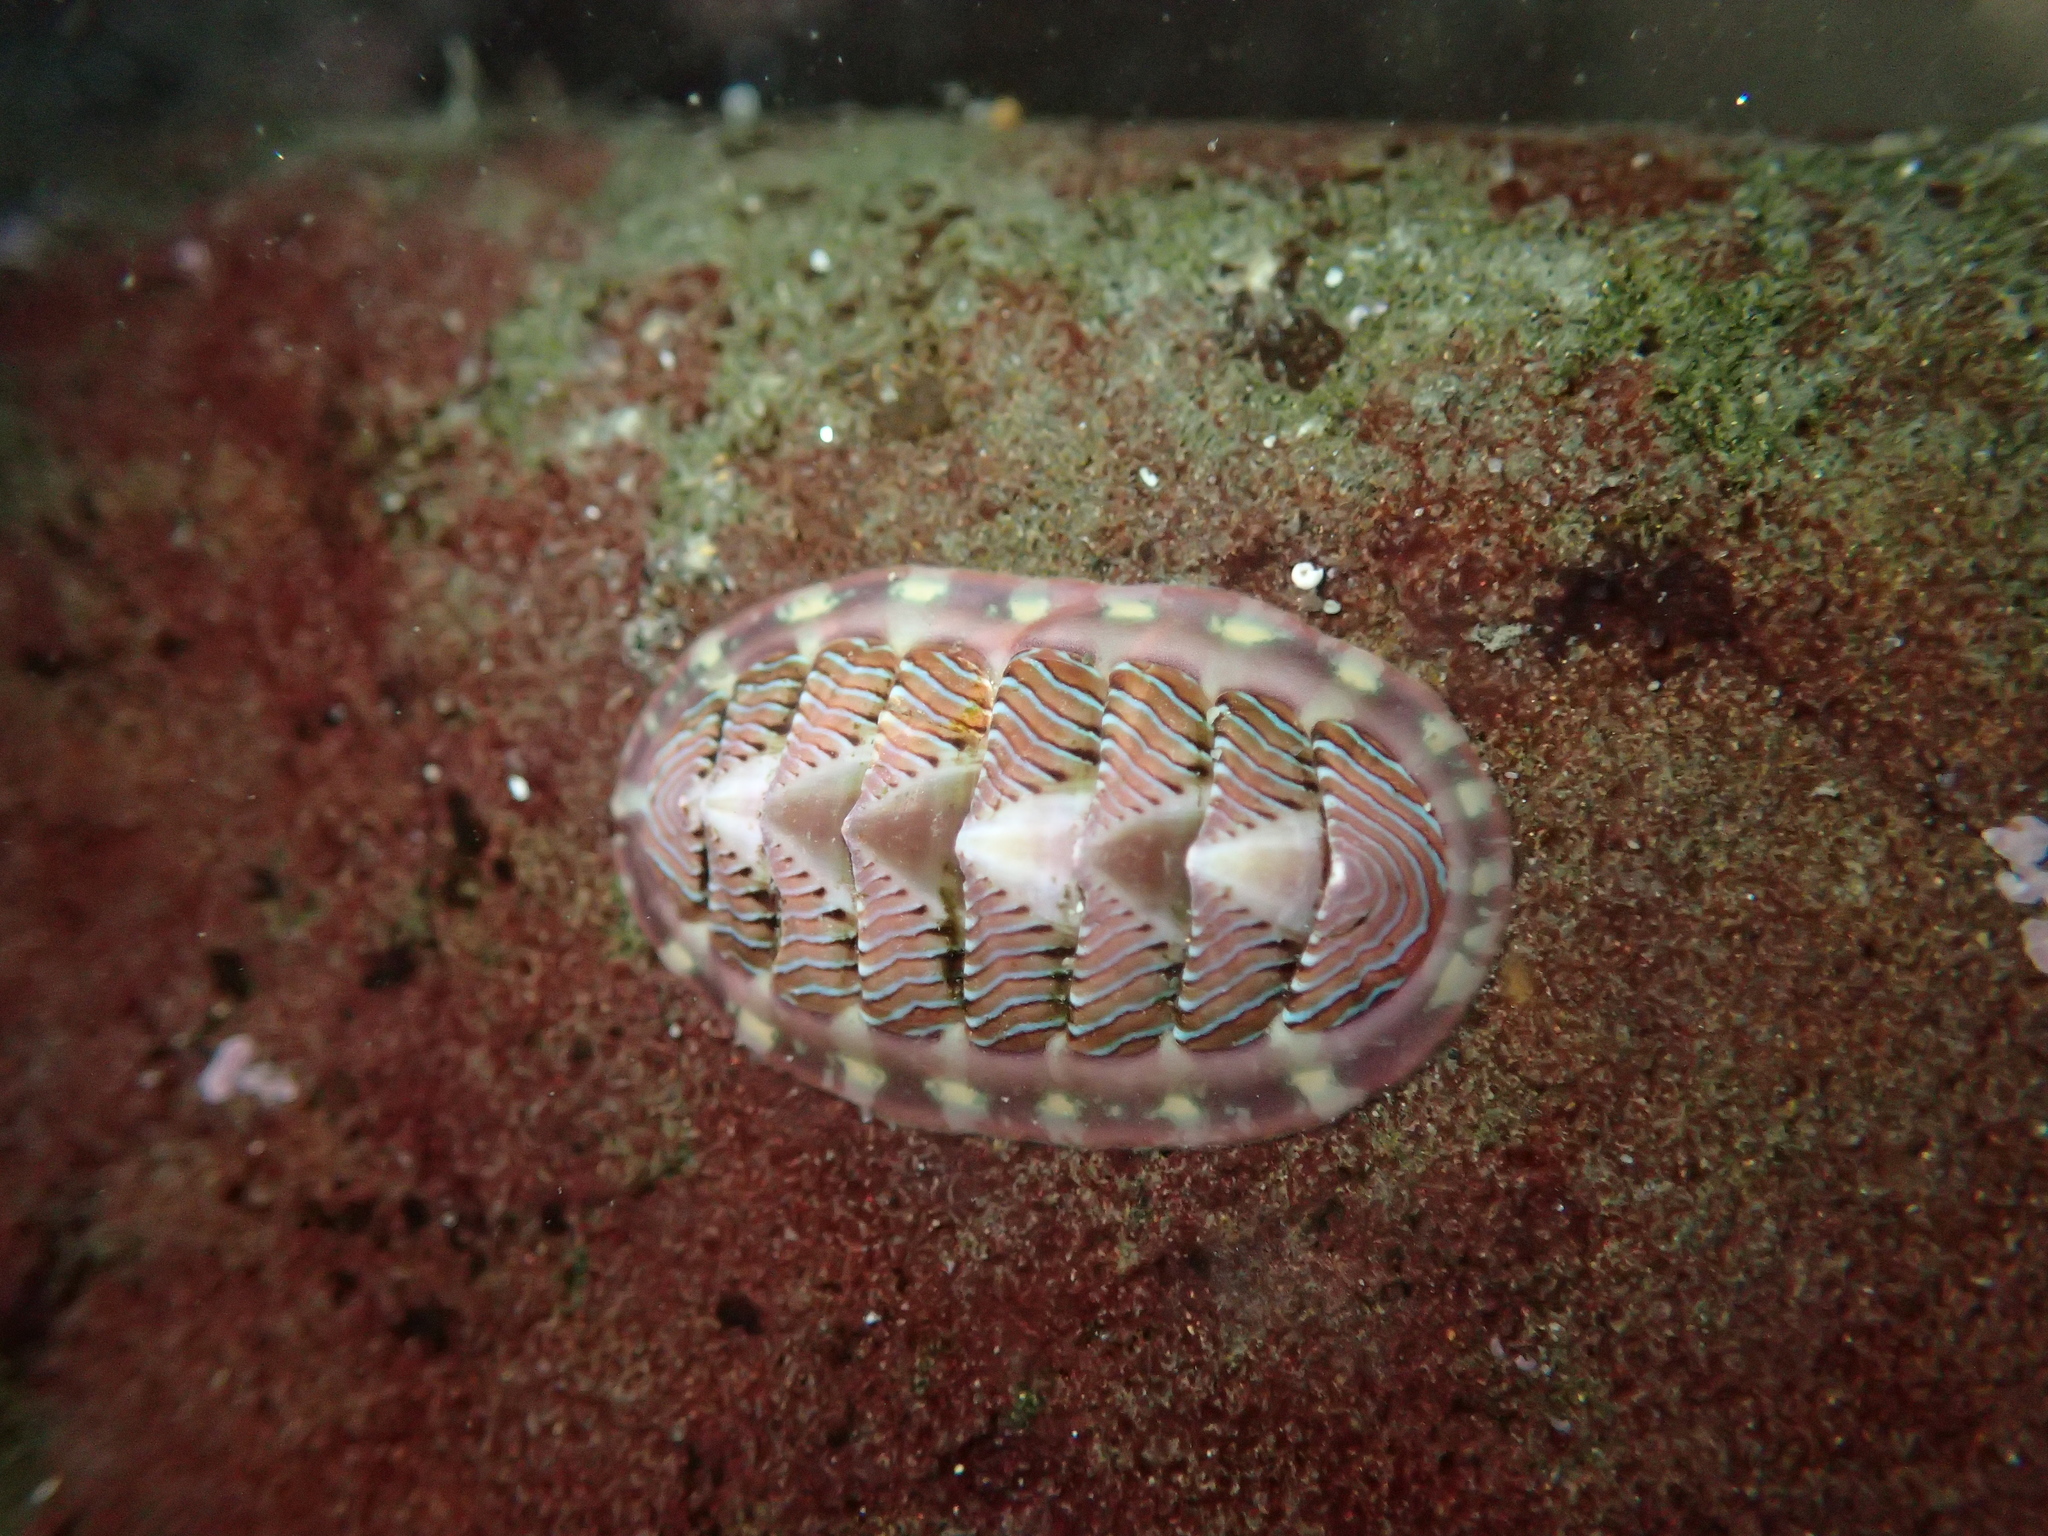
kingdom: Animalia
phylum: Mollusca
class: Polyplacophora
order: Chitonida
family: Tonicellidae
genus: Tonicella
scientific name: Tonicella lineata
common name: Lined chiton
